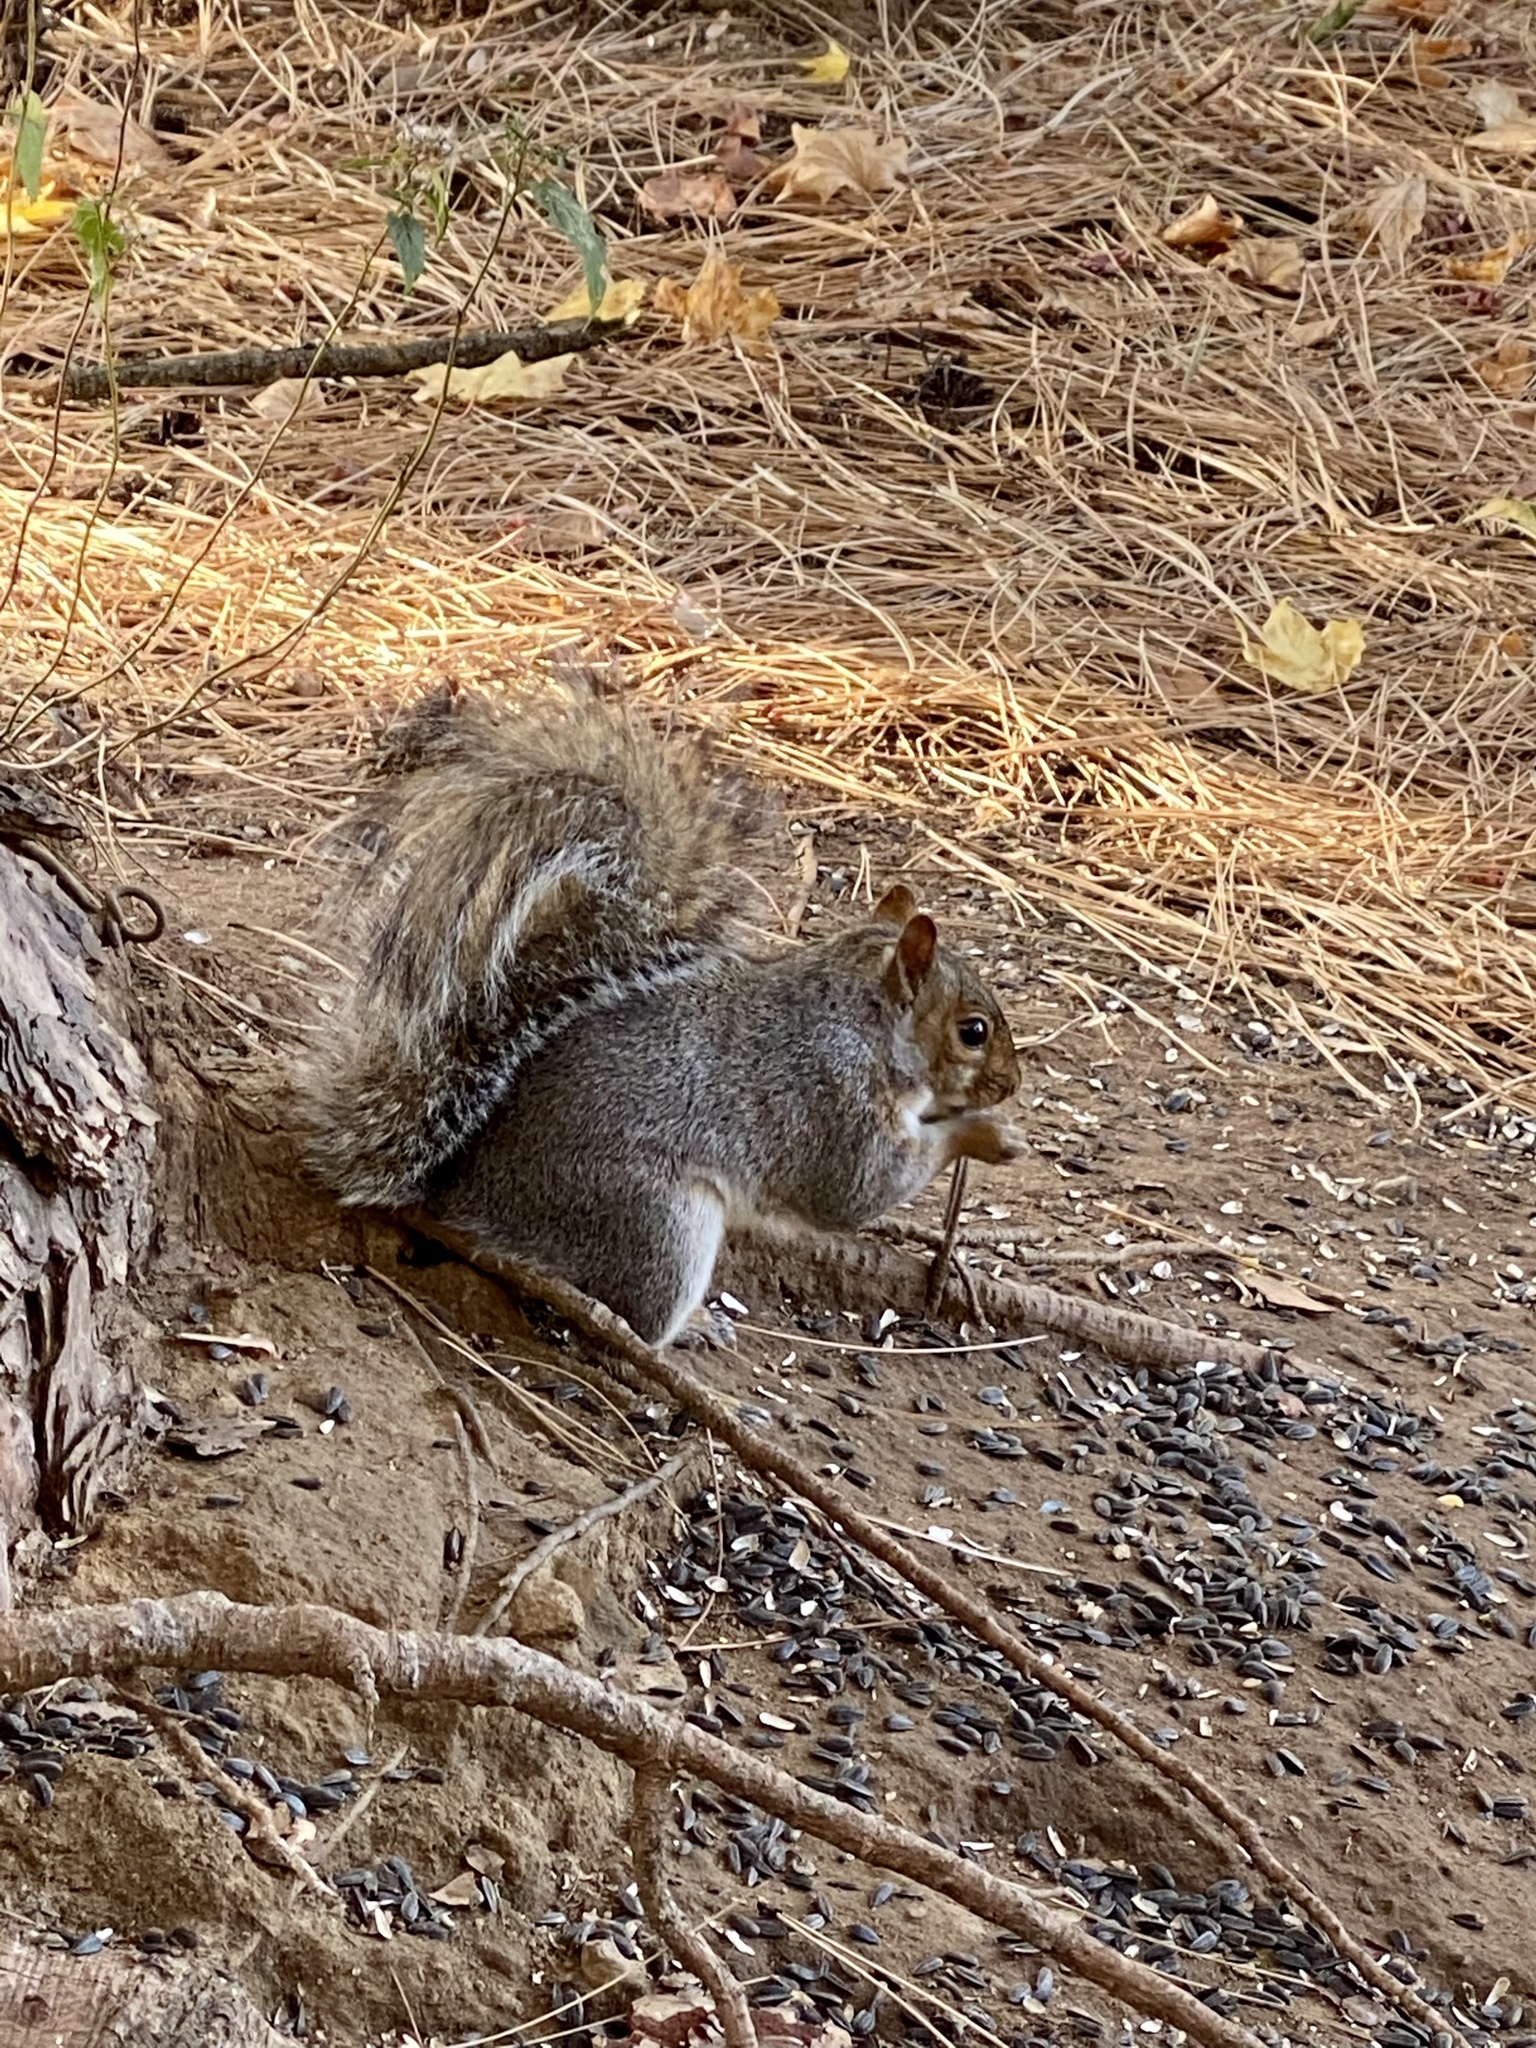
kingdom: Animalia
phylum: Chordata
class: Mammalia
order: Rodentia
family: Sciuridae
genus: Sciurus
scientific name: Sciurus carolinensis
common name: Eastern gray squirrel
